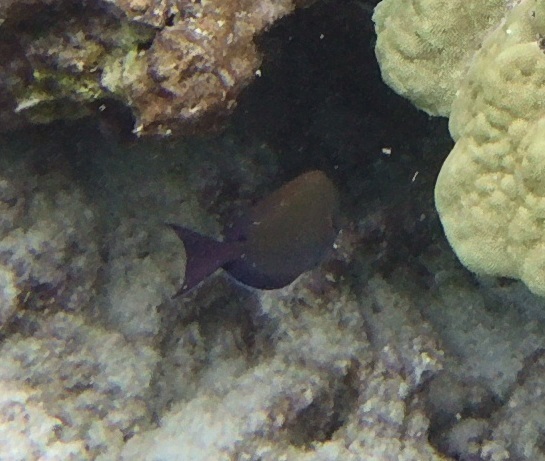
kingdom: Animalia
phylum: Chordata
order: Perciformes
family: Acanthuridae
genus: Acanthurus
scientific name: Acanthurus nigrofuscus
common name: Blackspot surgeonfish
